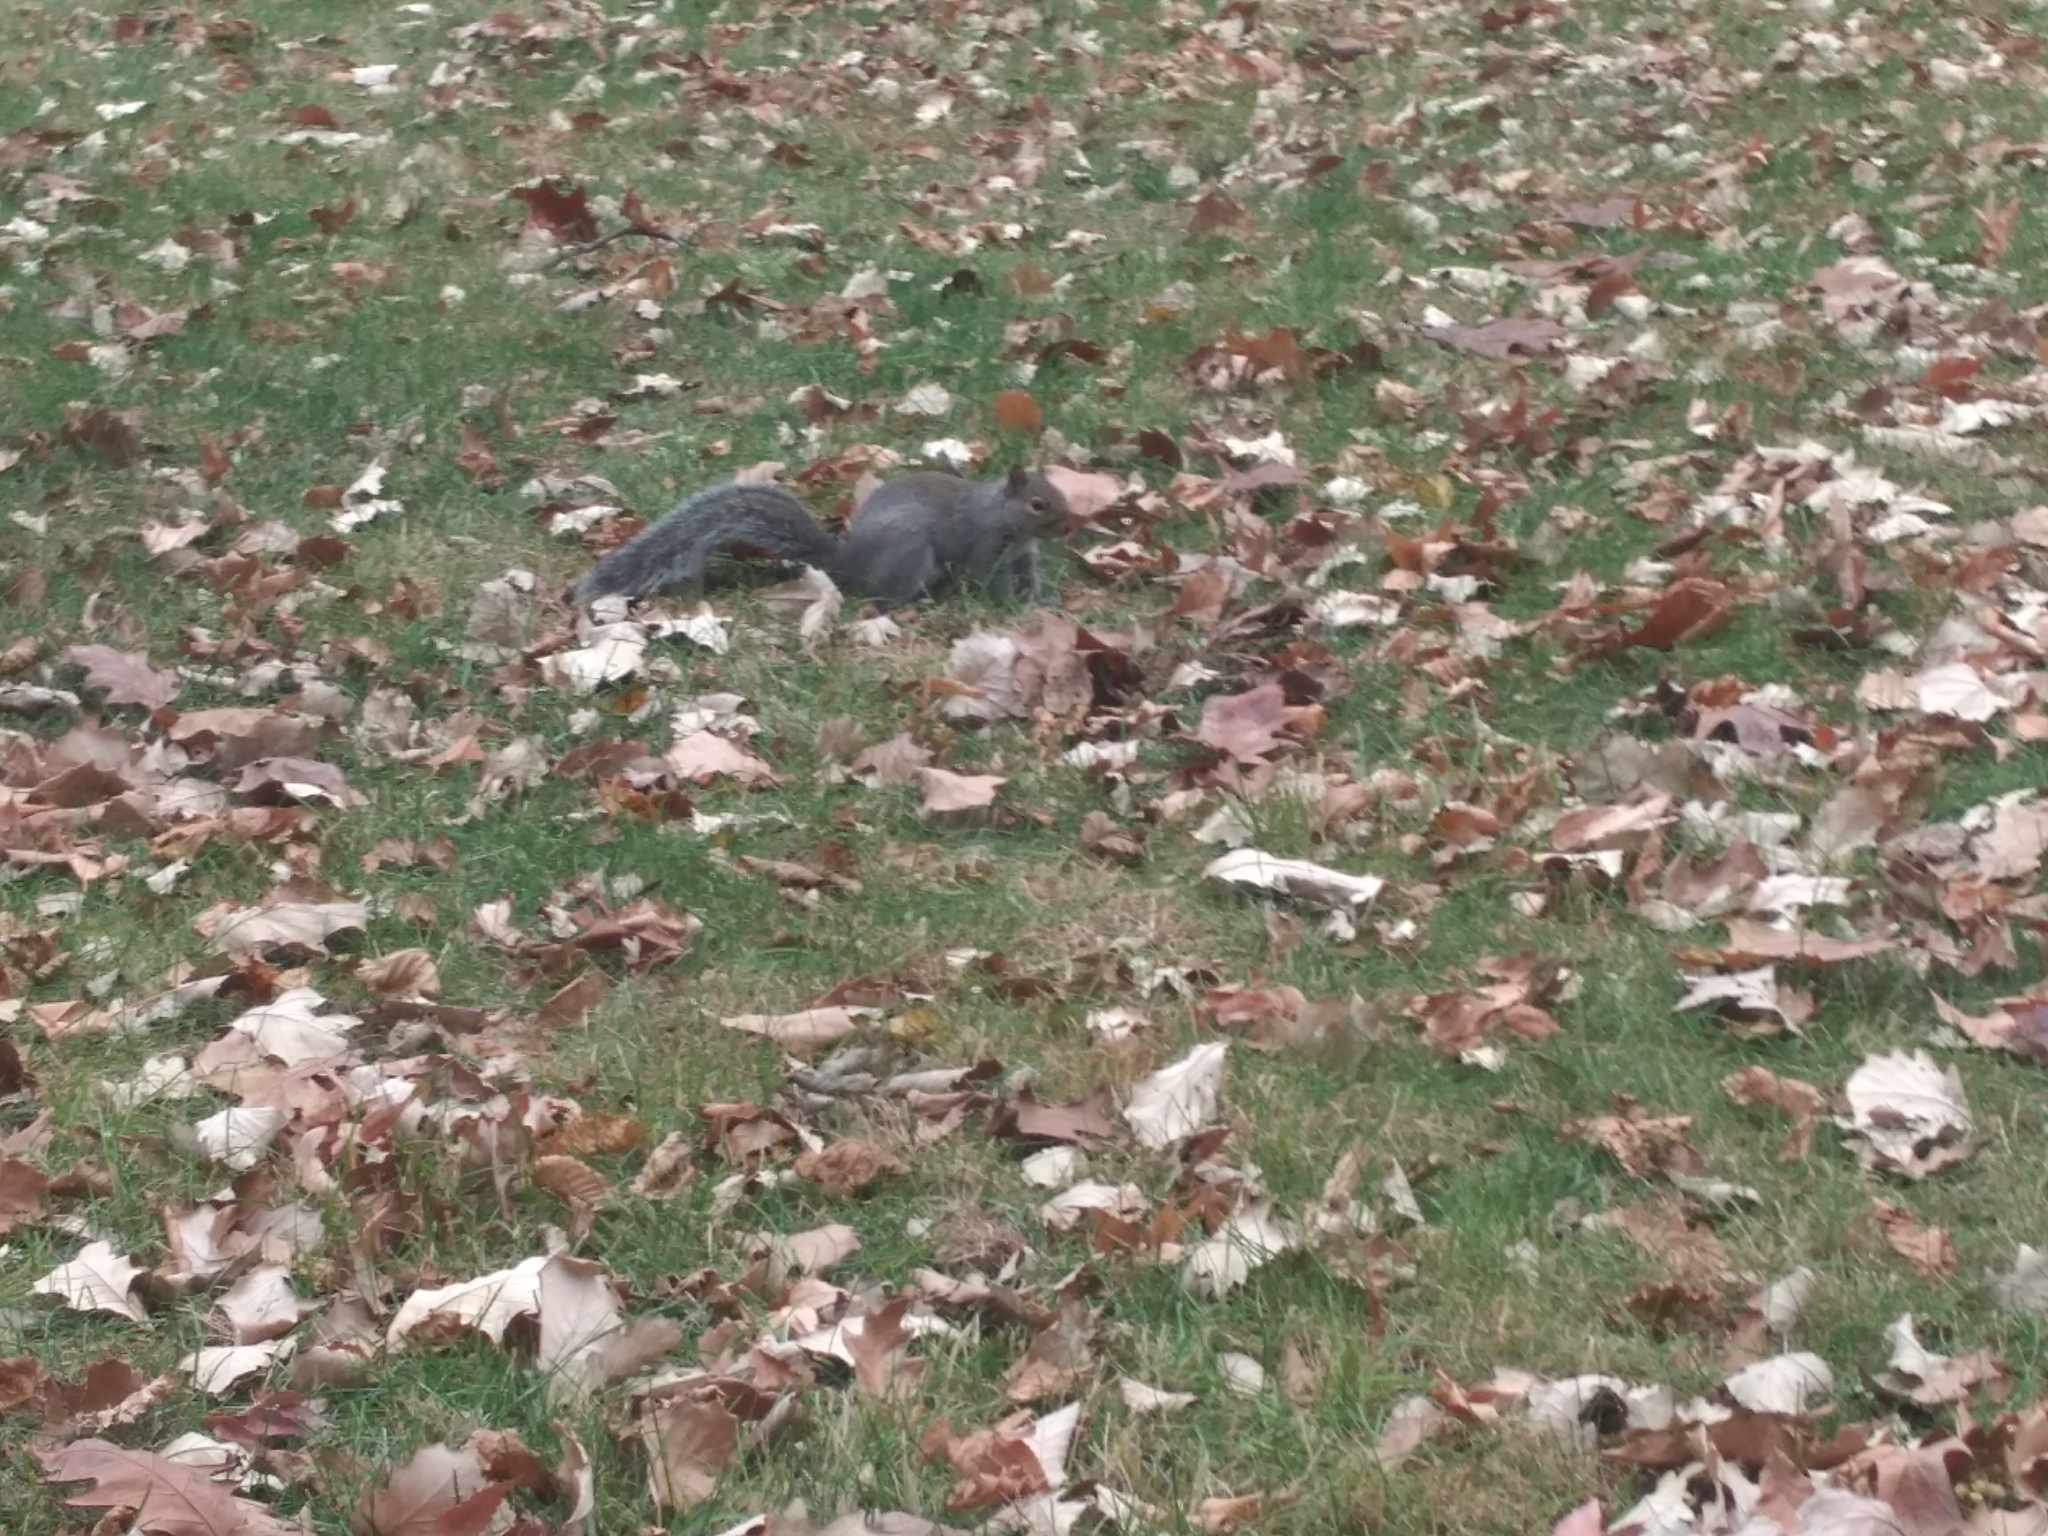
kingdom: Animalia
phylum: Chordata
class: Mammalia
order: Rodentia
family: Sciuridae
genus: Sciurus
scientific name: Sciurus carolinensis
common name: Eastern gray squirrel
